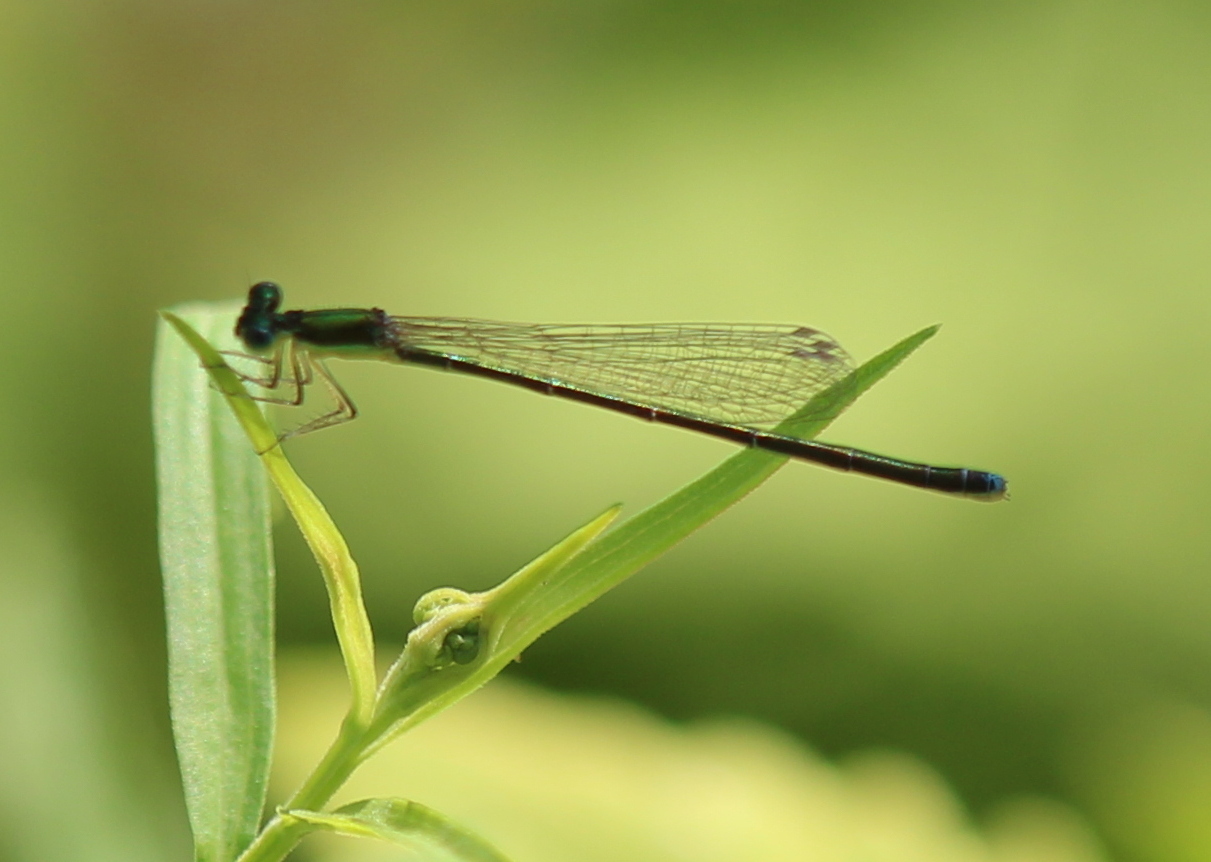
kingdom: Animalia
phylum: Arthropoda
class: Insecta
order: Odonata
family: Coenagrionidae
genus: Nehalennia
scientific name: Nehalennia irene
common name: Sedge sprite
